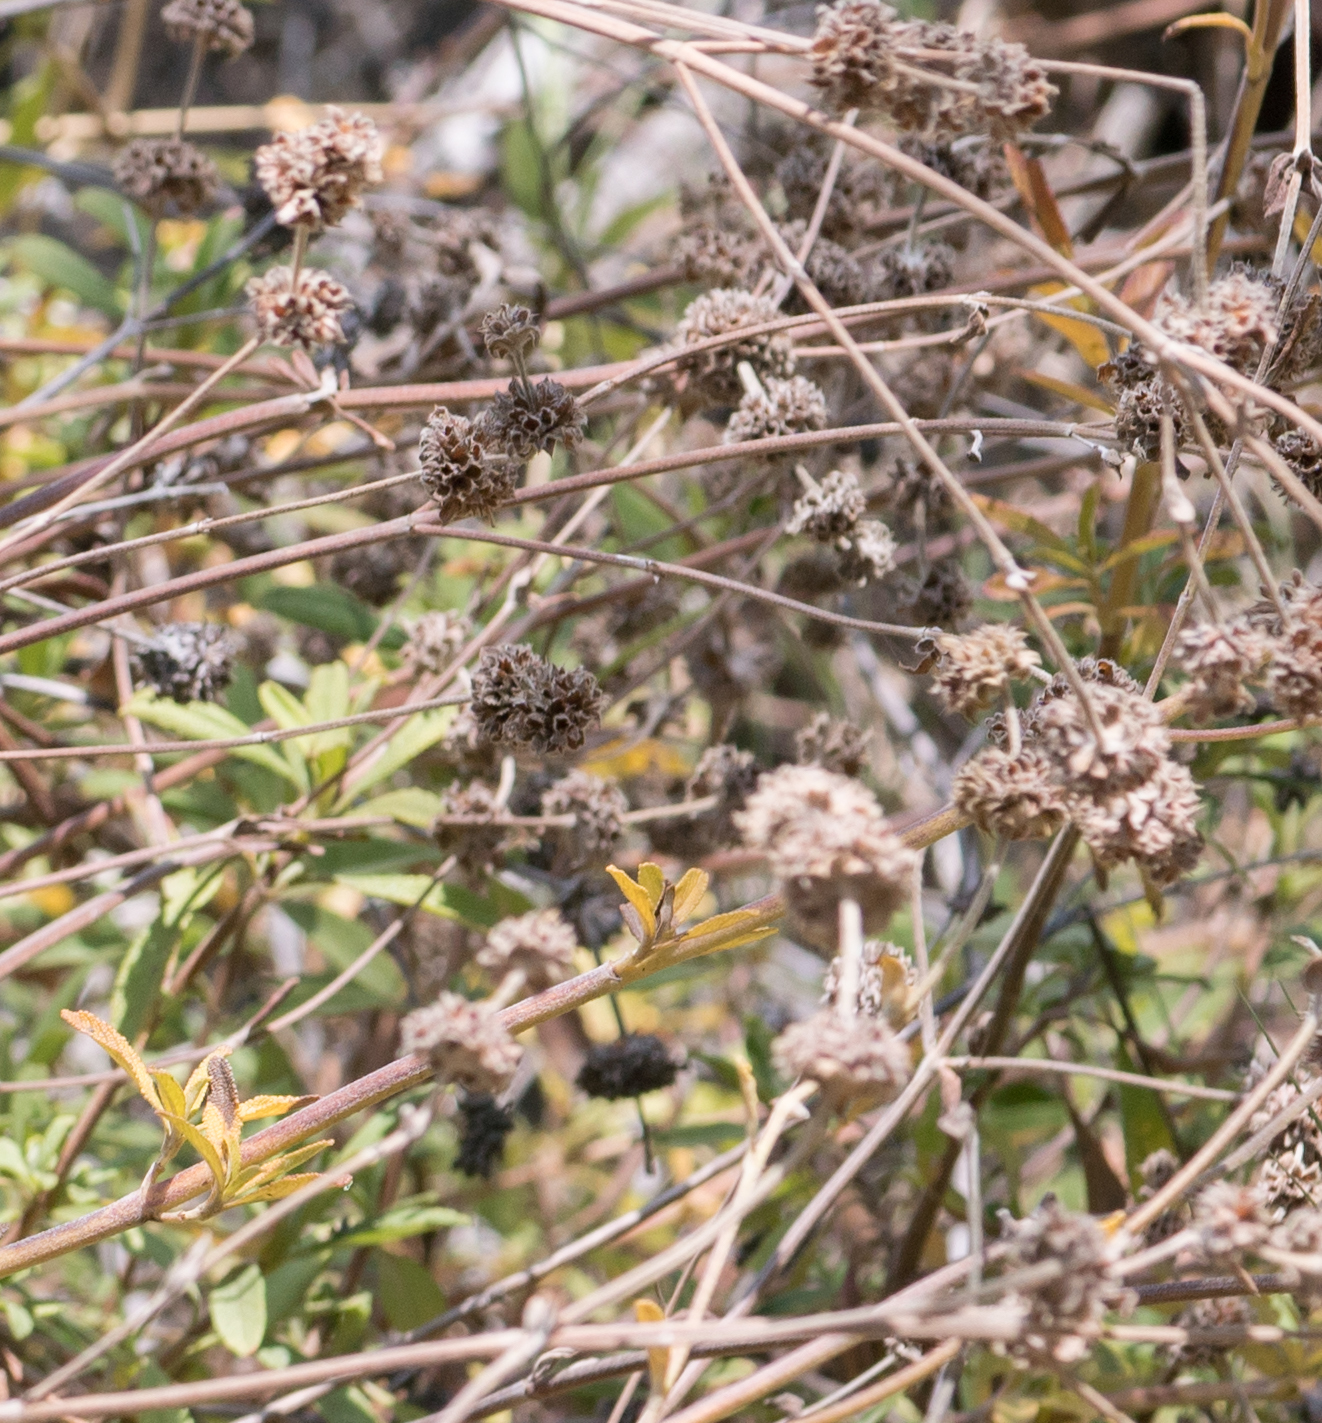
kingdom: Plantae
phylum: Tracheophyta
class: Magnoliopsida
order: Lamiales
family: Lamiaceae
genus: Salvia
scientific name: Salvia mellifera
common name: Black sage
